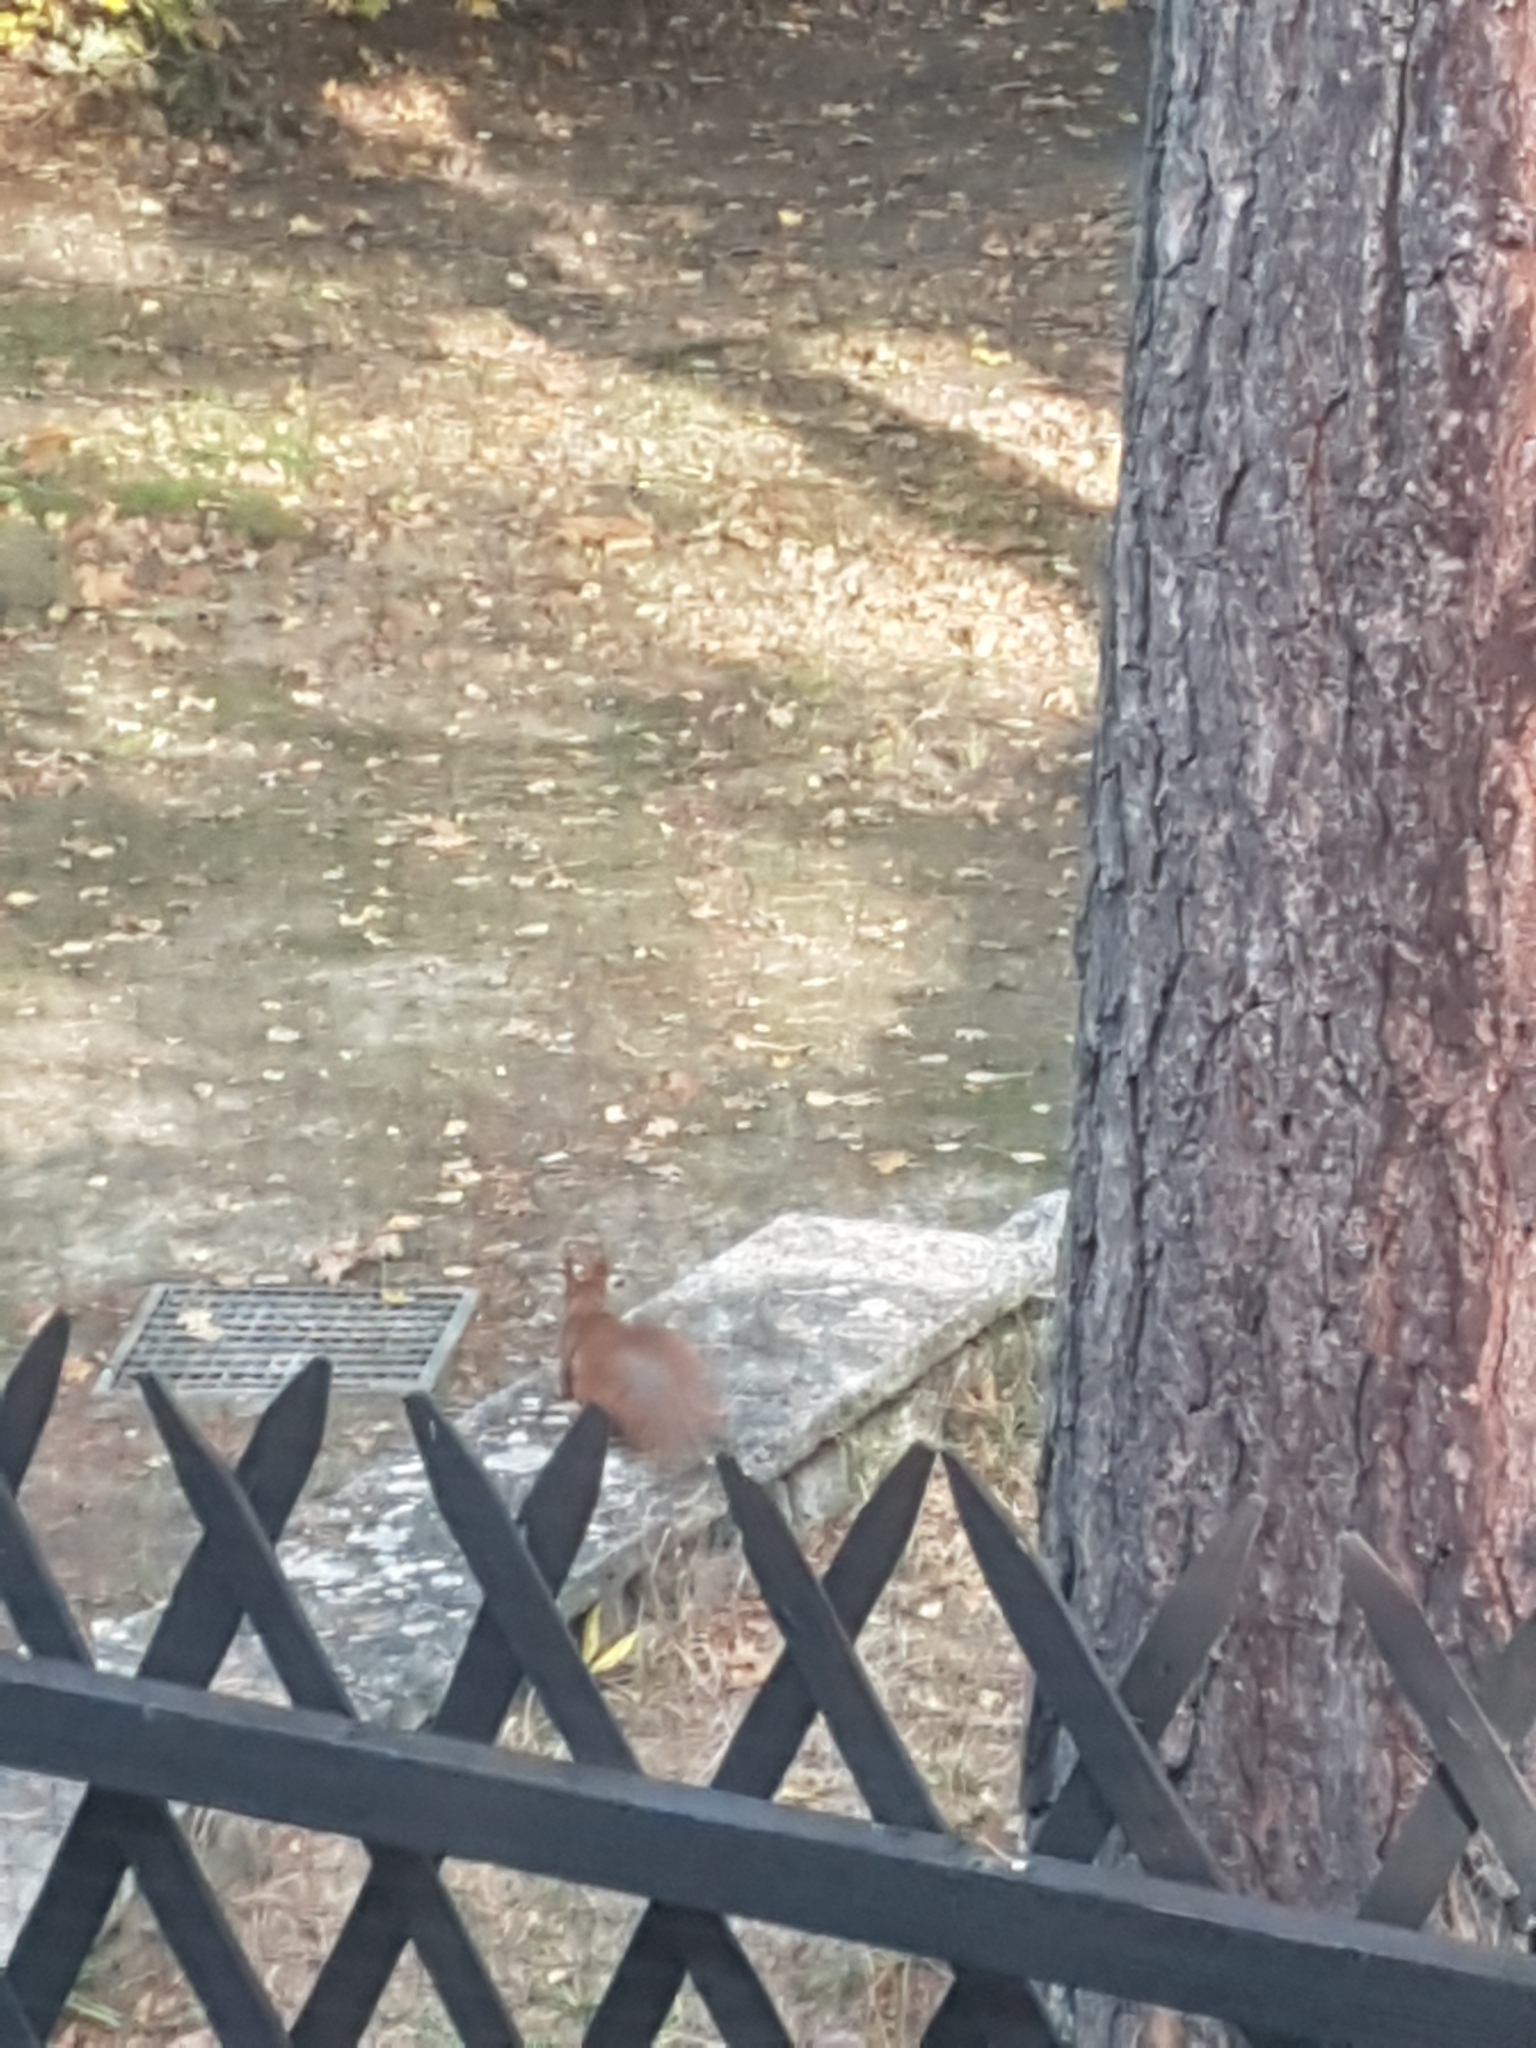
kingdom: Animalia
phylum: Chordata
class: Mammalia
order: Rodentia
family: Sciuridae
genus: Sciurus
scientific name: Sciurus vulgaris
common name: Eurasian red squirrel
